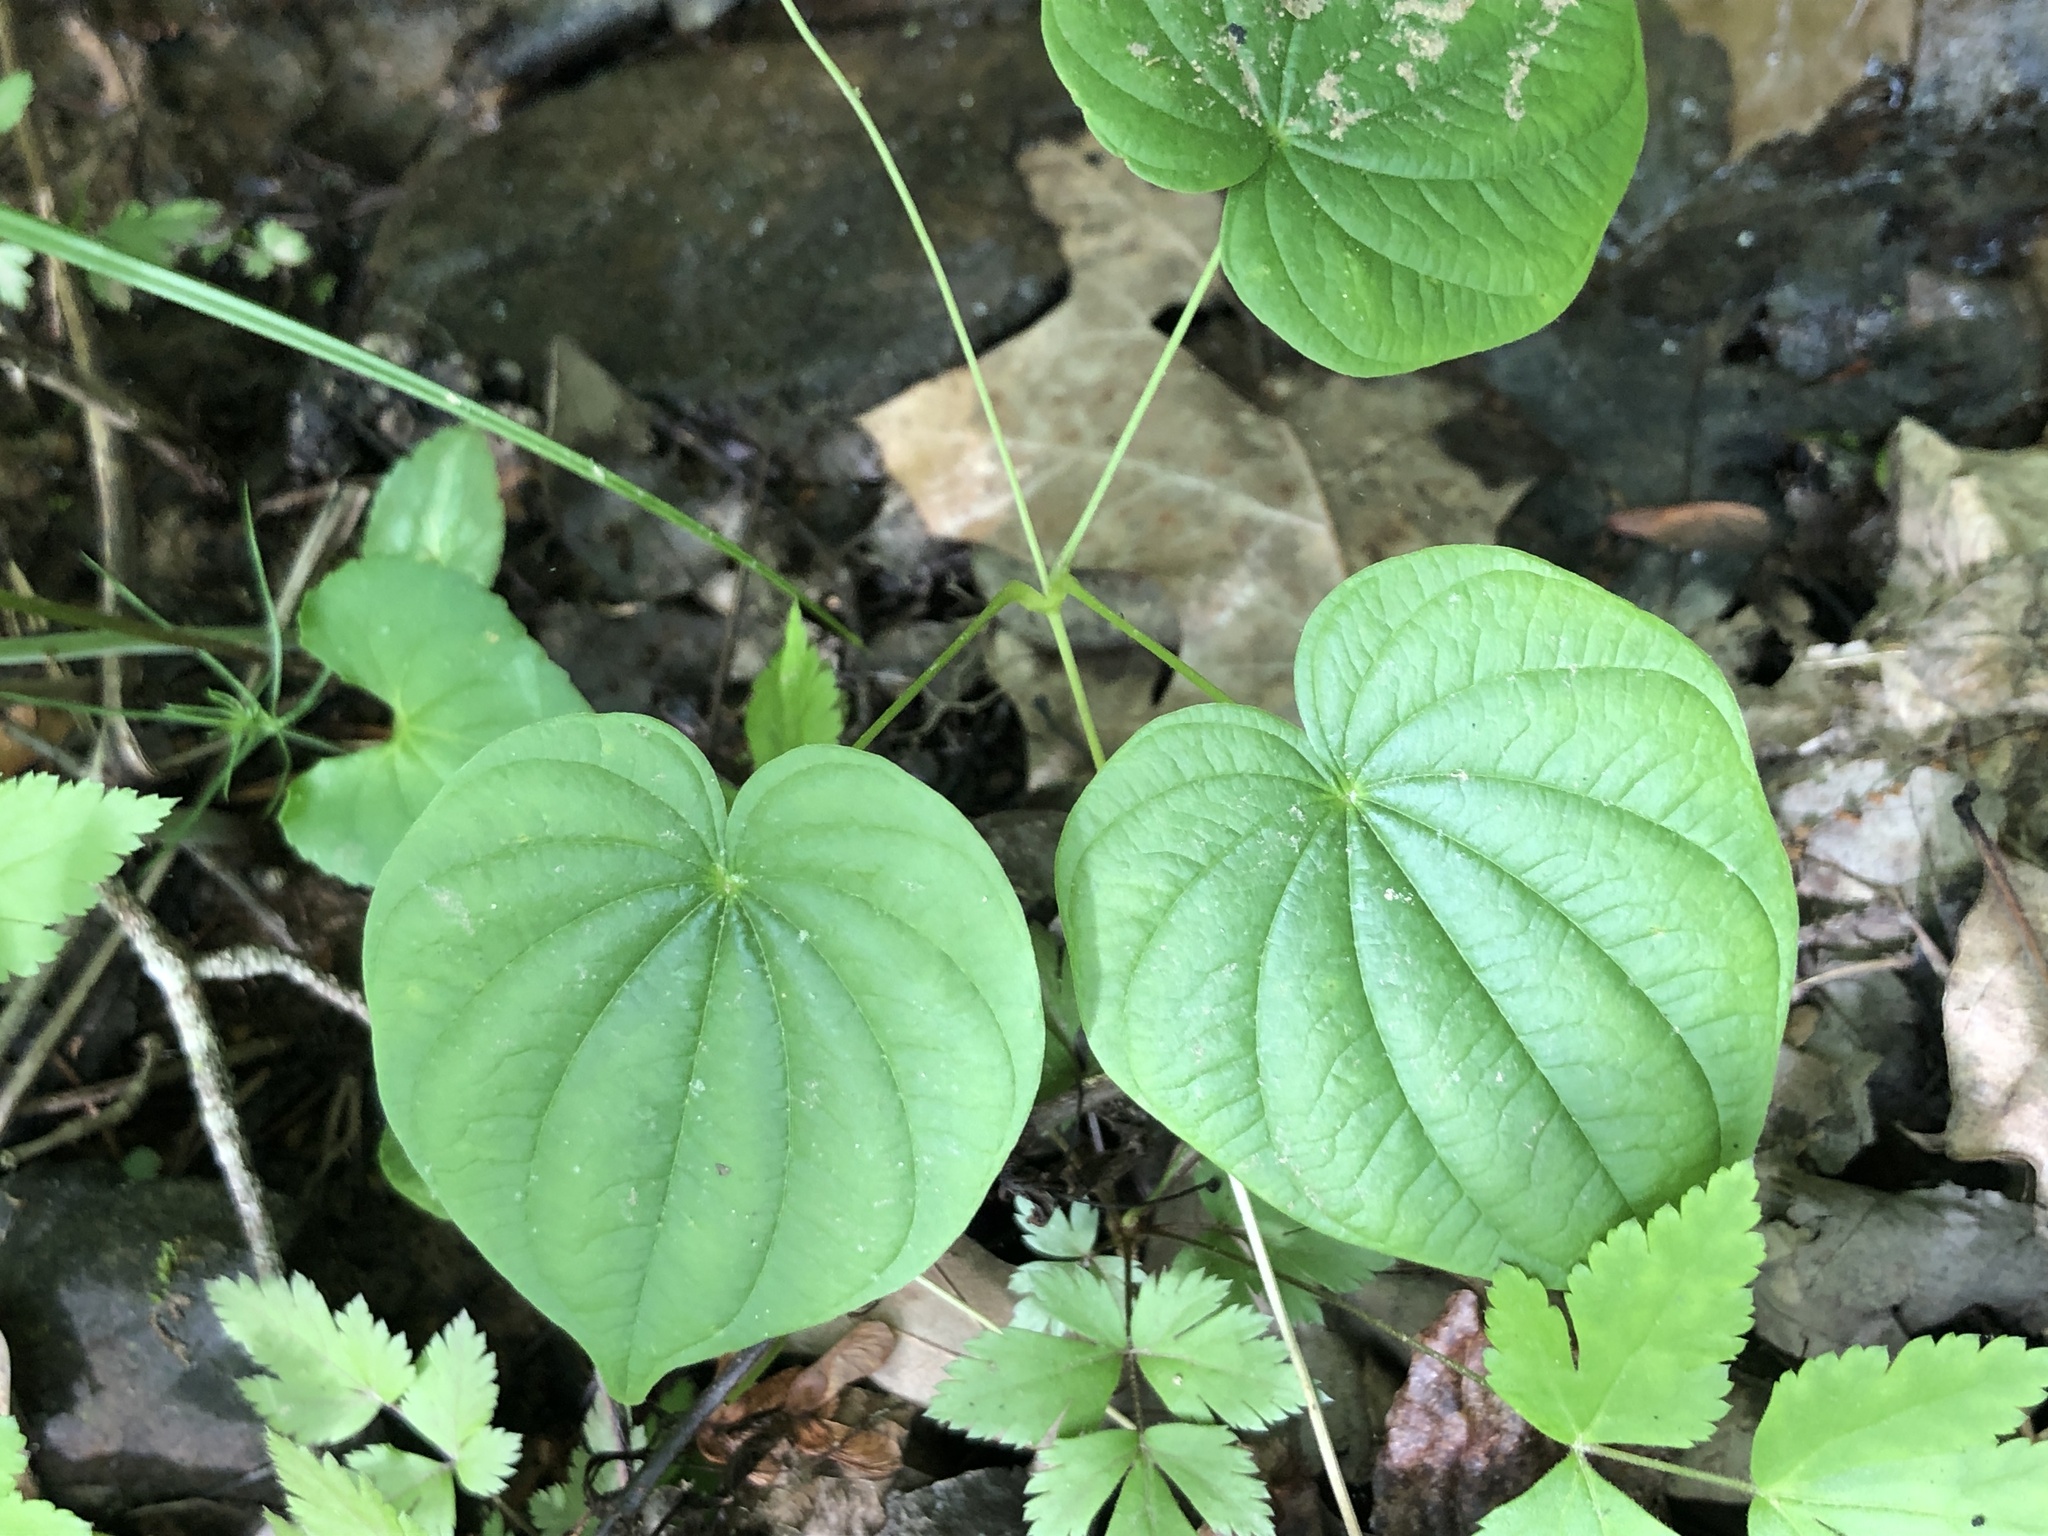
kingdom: Plantae
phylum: Tracheophyta
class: Liliopsida
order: Dioscoreales
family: Dioscoreaceae
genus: Dioscorea
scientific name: Dioscorea villosa
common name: Wild yam
